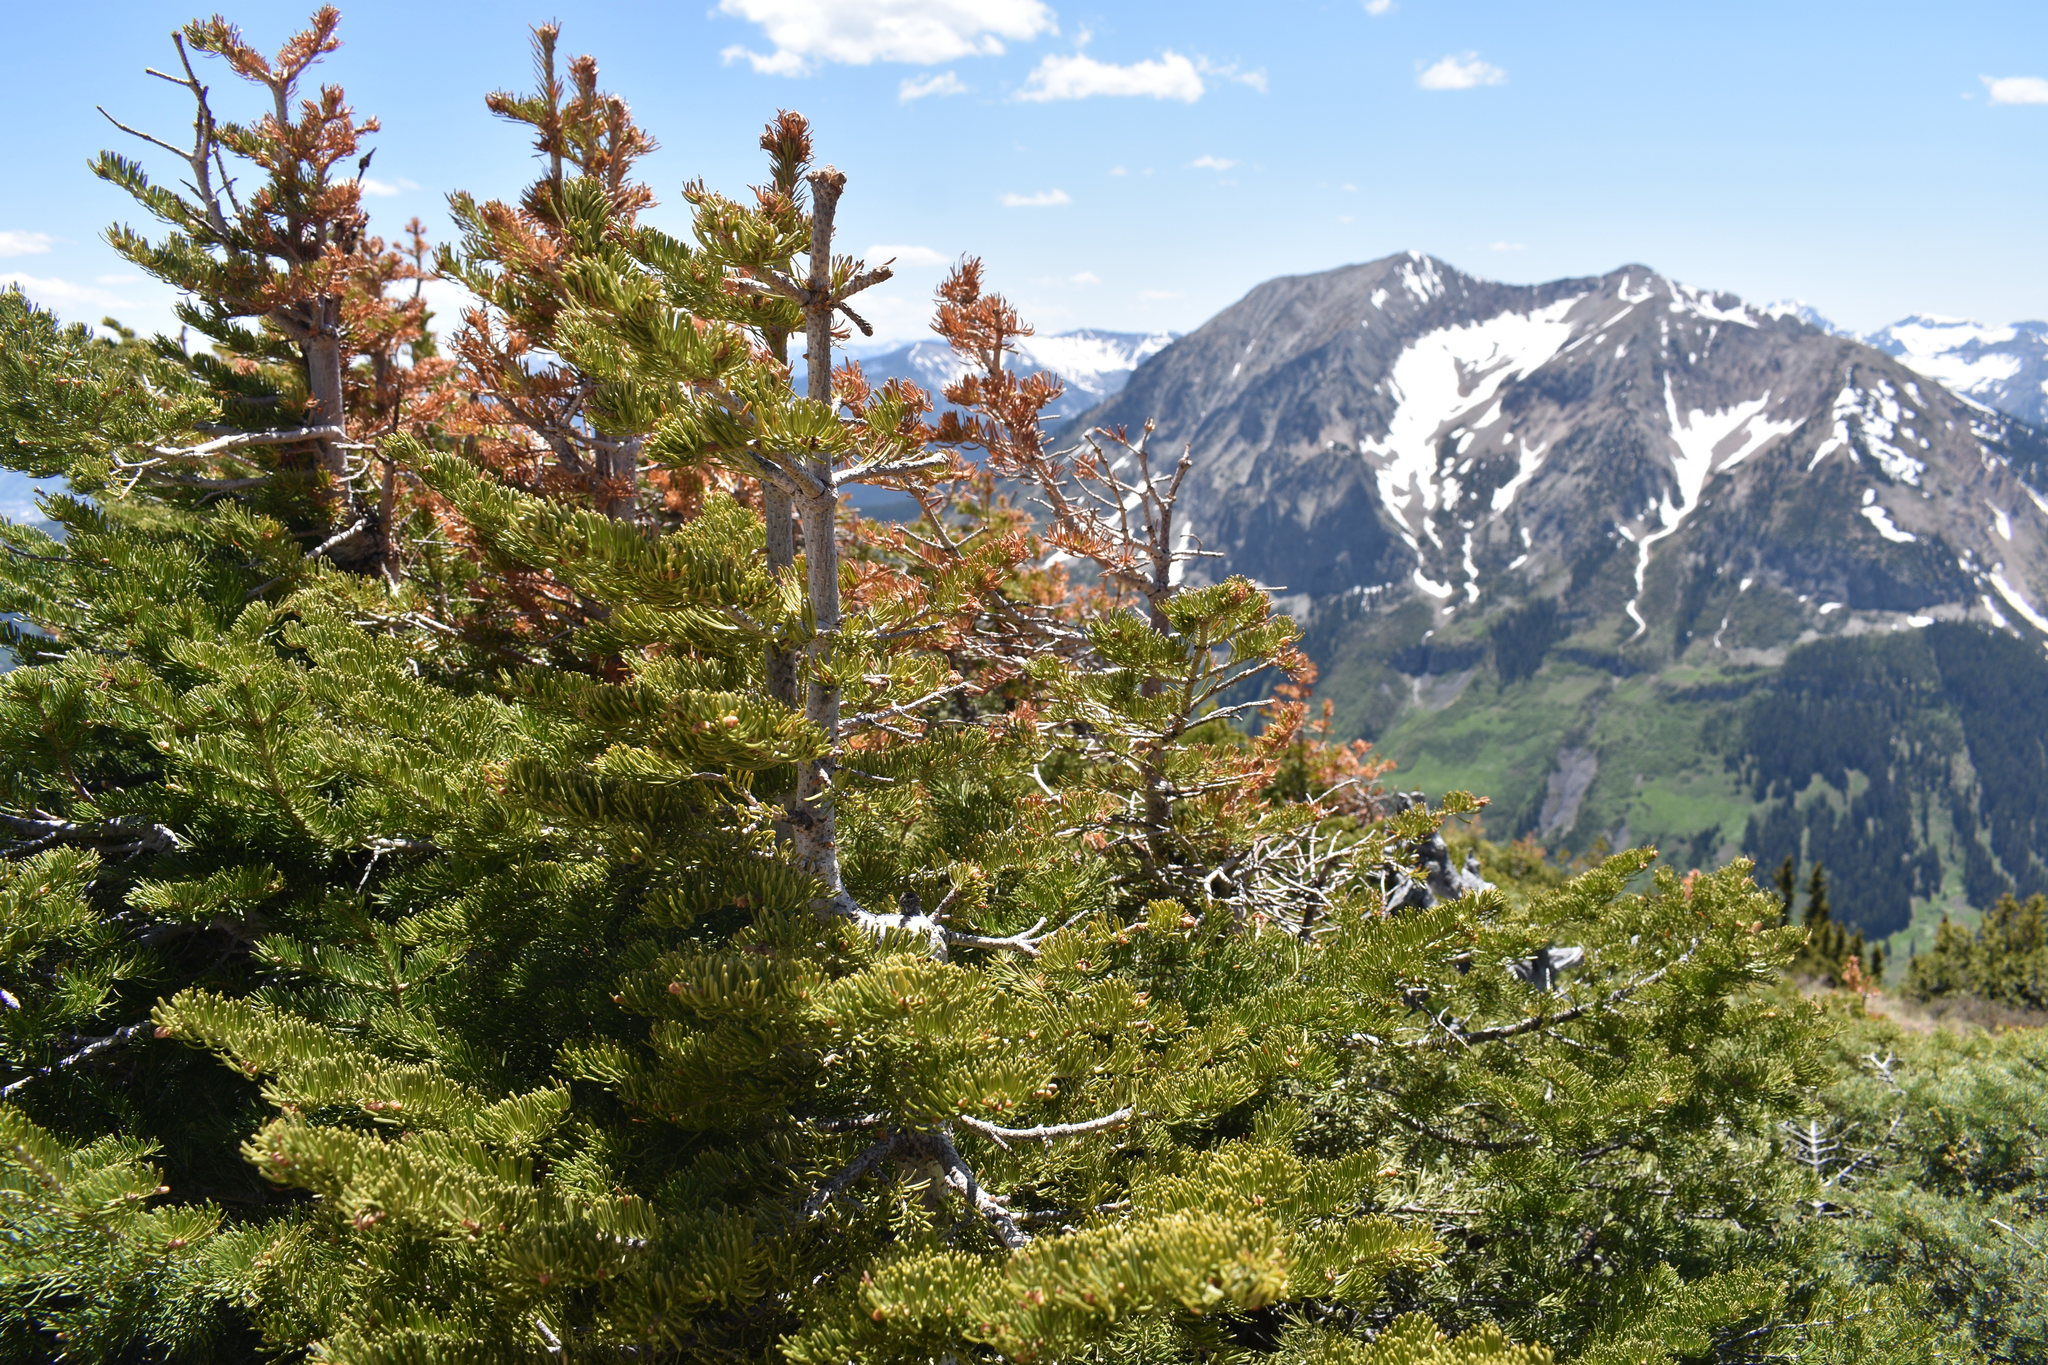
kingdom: Plantae
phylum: Tracheophyta
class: Pinopsida
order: Pinales
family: Pinaceae
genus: Picea
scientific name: Picea engelmannii
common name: Engelmann spruce
